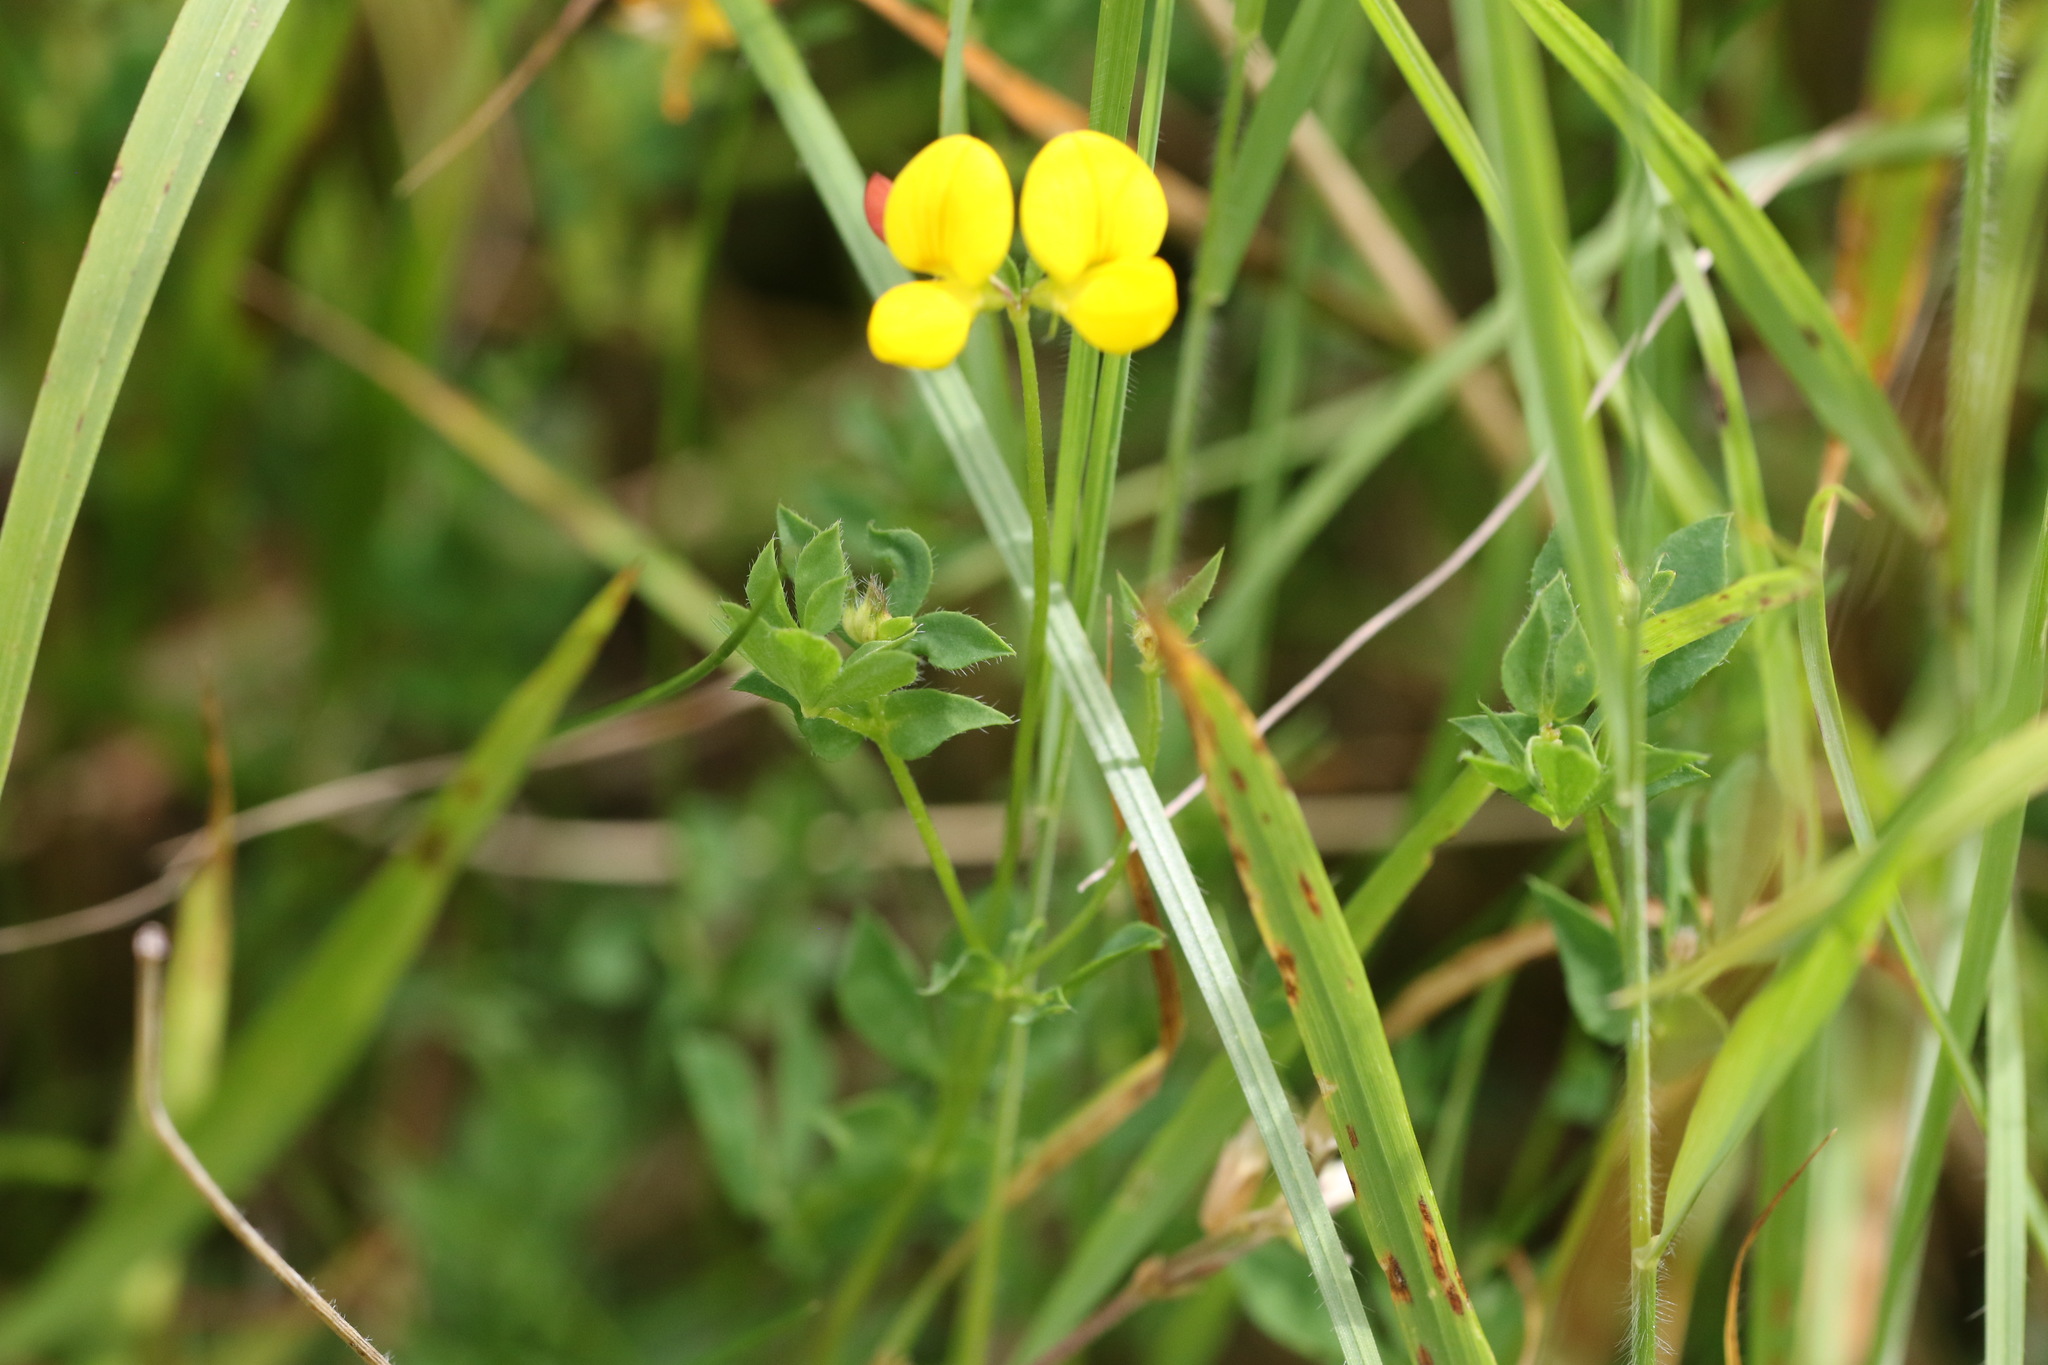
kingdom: Plantae
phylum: Tracheophyta
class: Magnoliopsida
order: Fabales
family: Fabaceae
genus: Lotus
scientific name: Lotus corniculatus
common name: Common bird's-foot-trefoil
